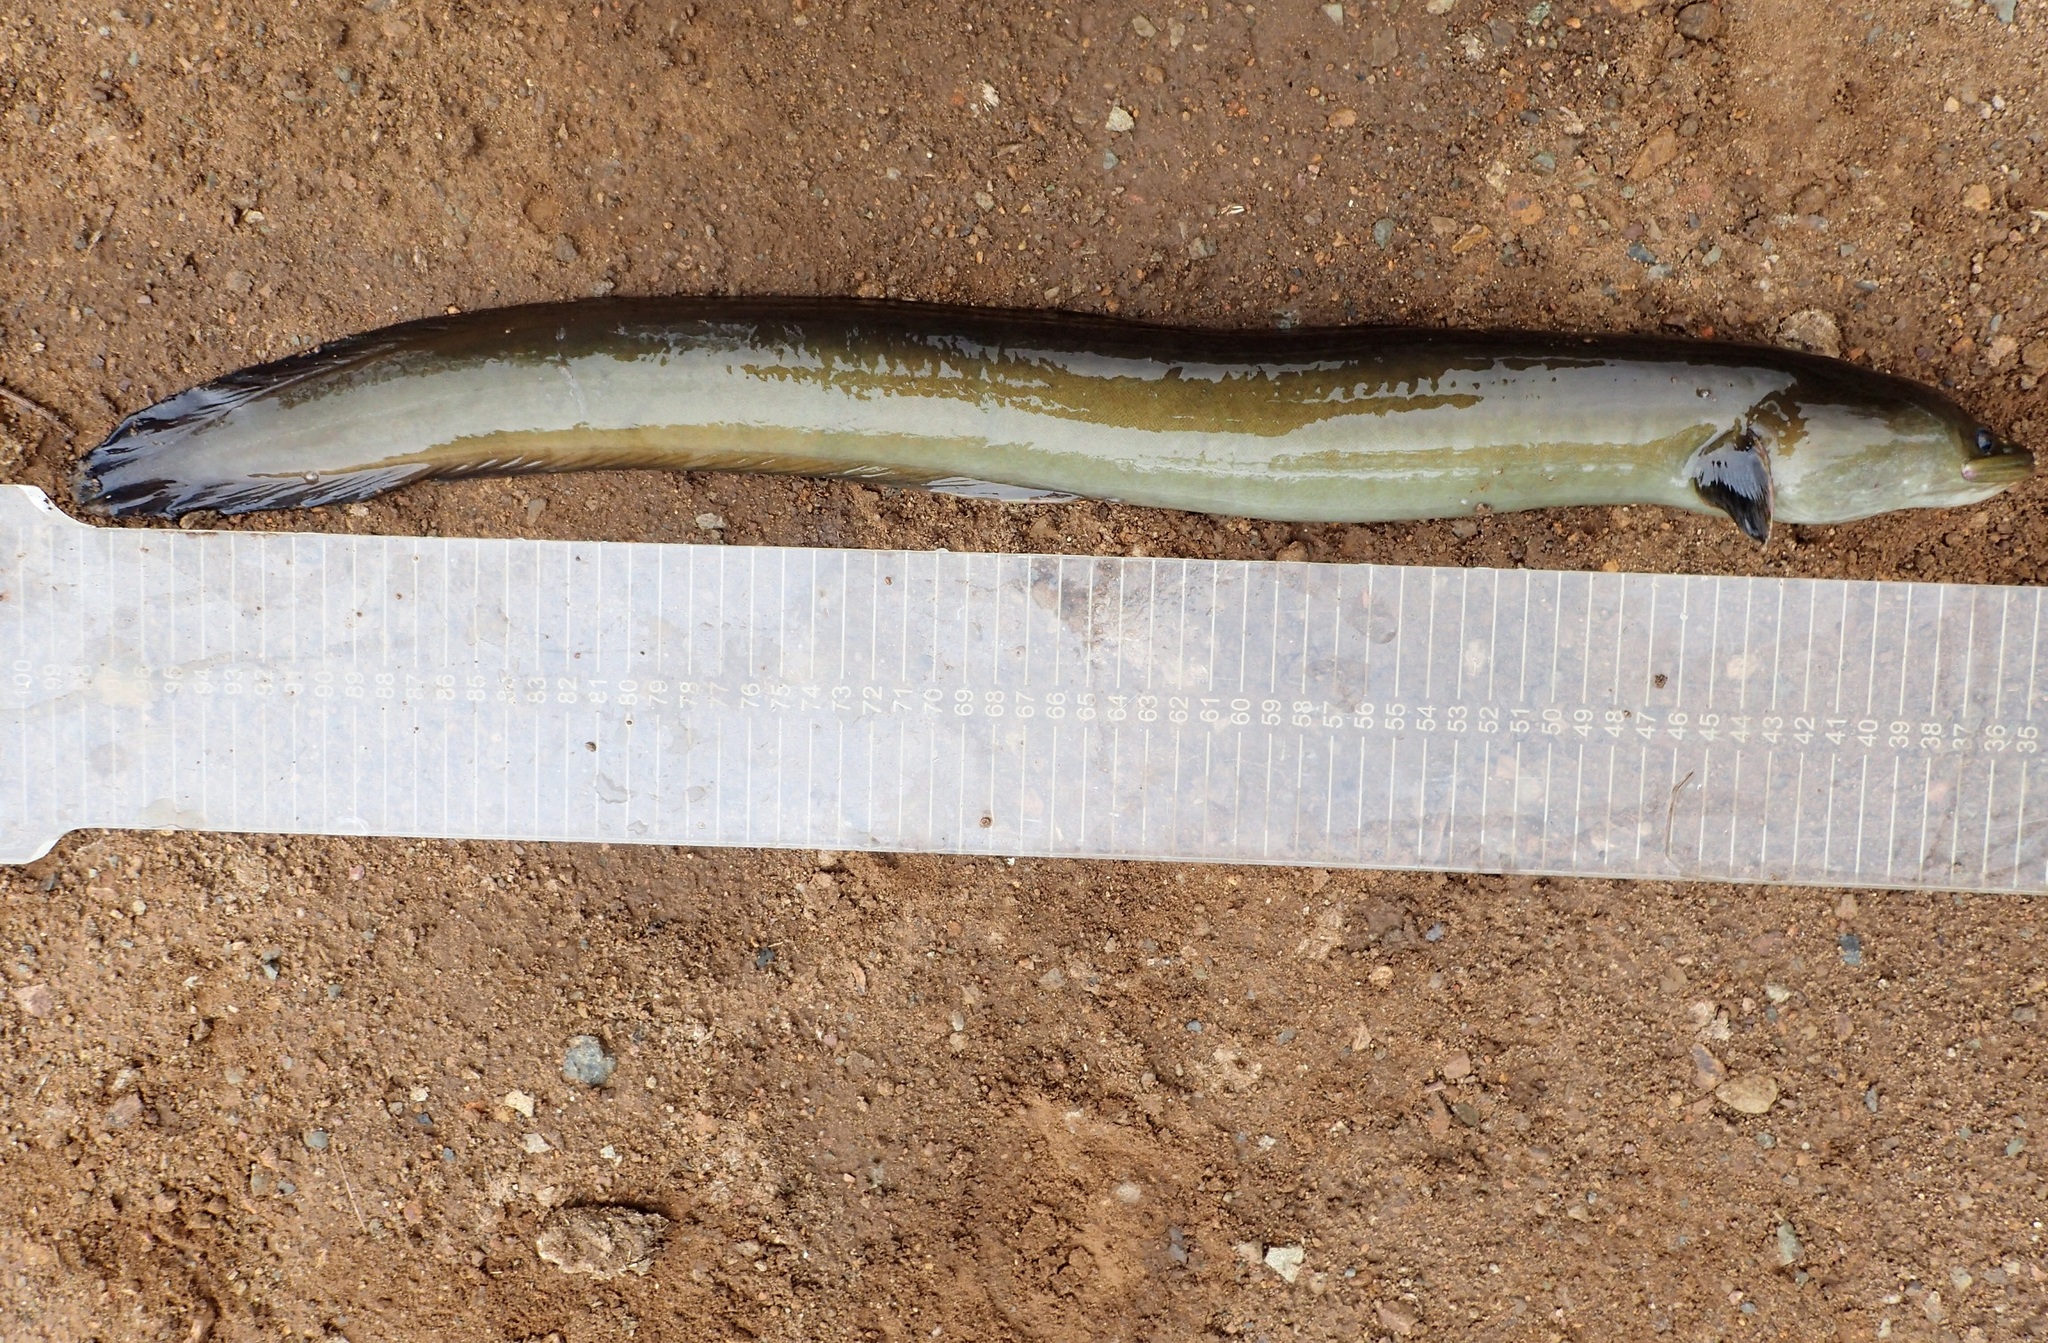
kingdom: Animalia
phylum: Chordata
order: Anguilliformes
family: Anguillidae
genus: Anguilla
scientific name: Anguilla mossambica
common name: African longfin eel
